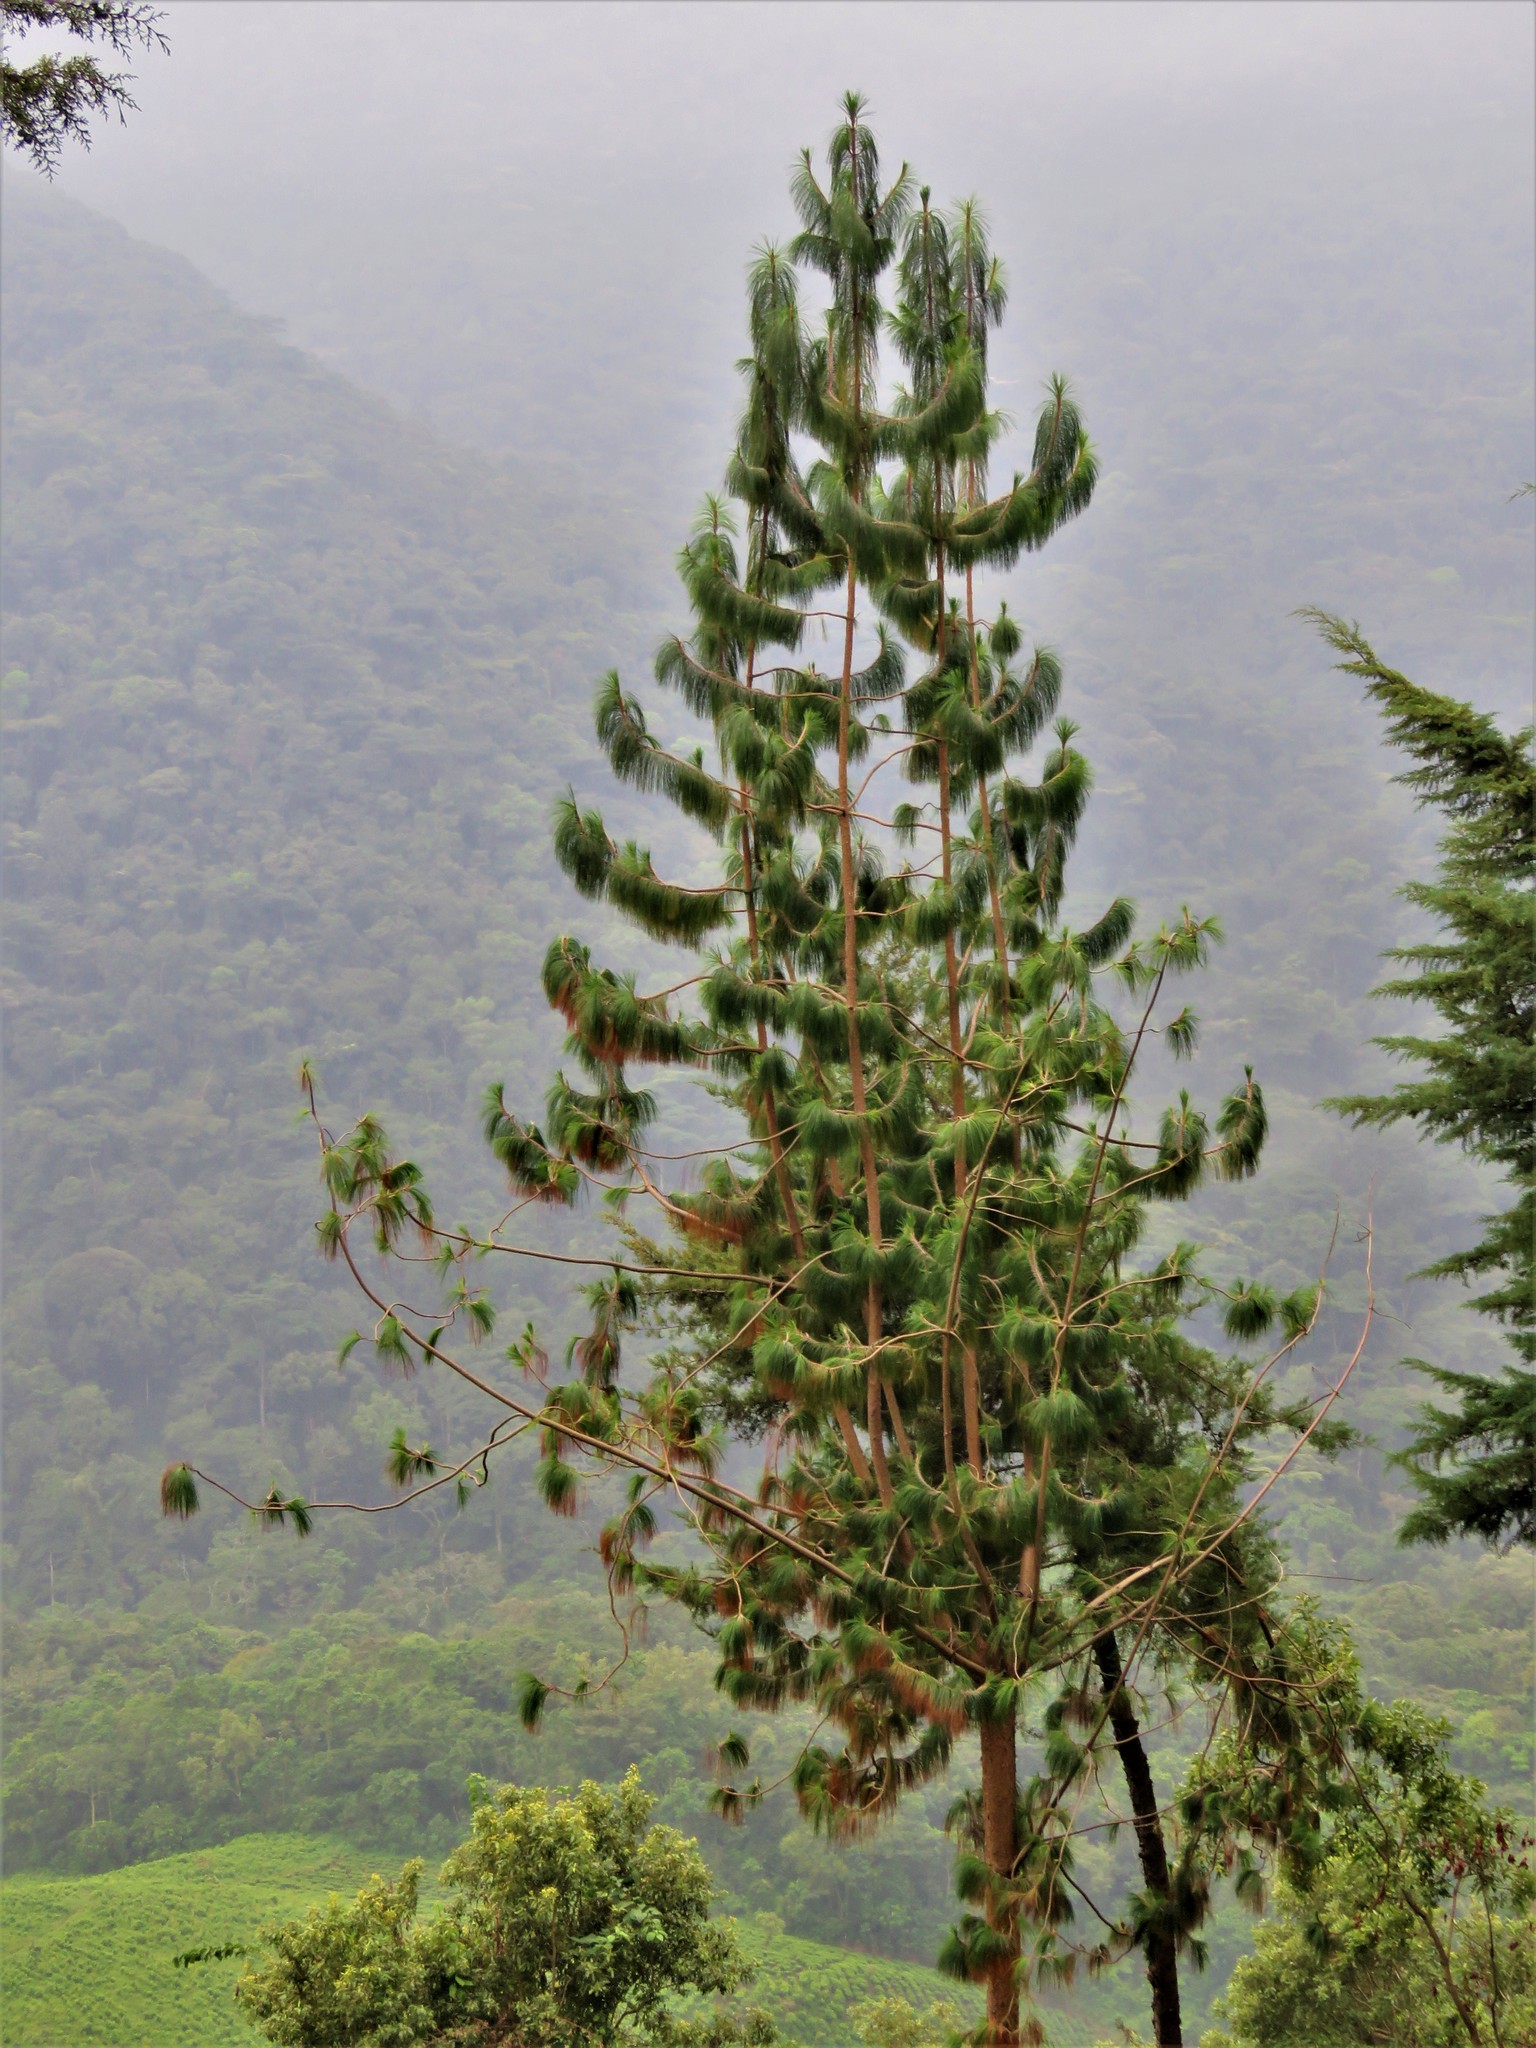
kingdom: Plantae
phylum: Tracheophyta
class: Pinopsida
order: Pinales
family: Pinaceae
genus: Pinus
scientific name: Pinus patula
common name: Mexican weeping pine
